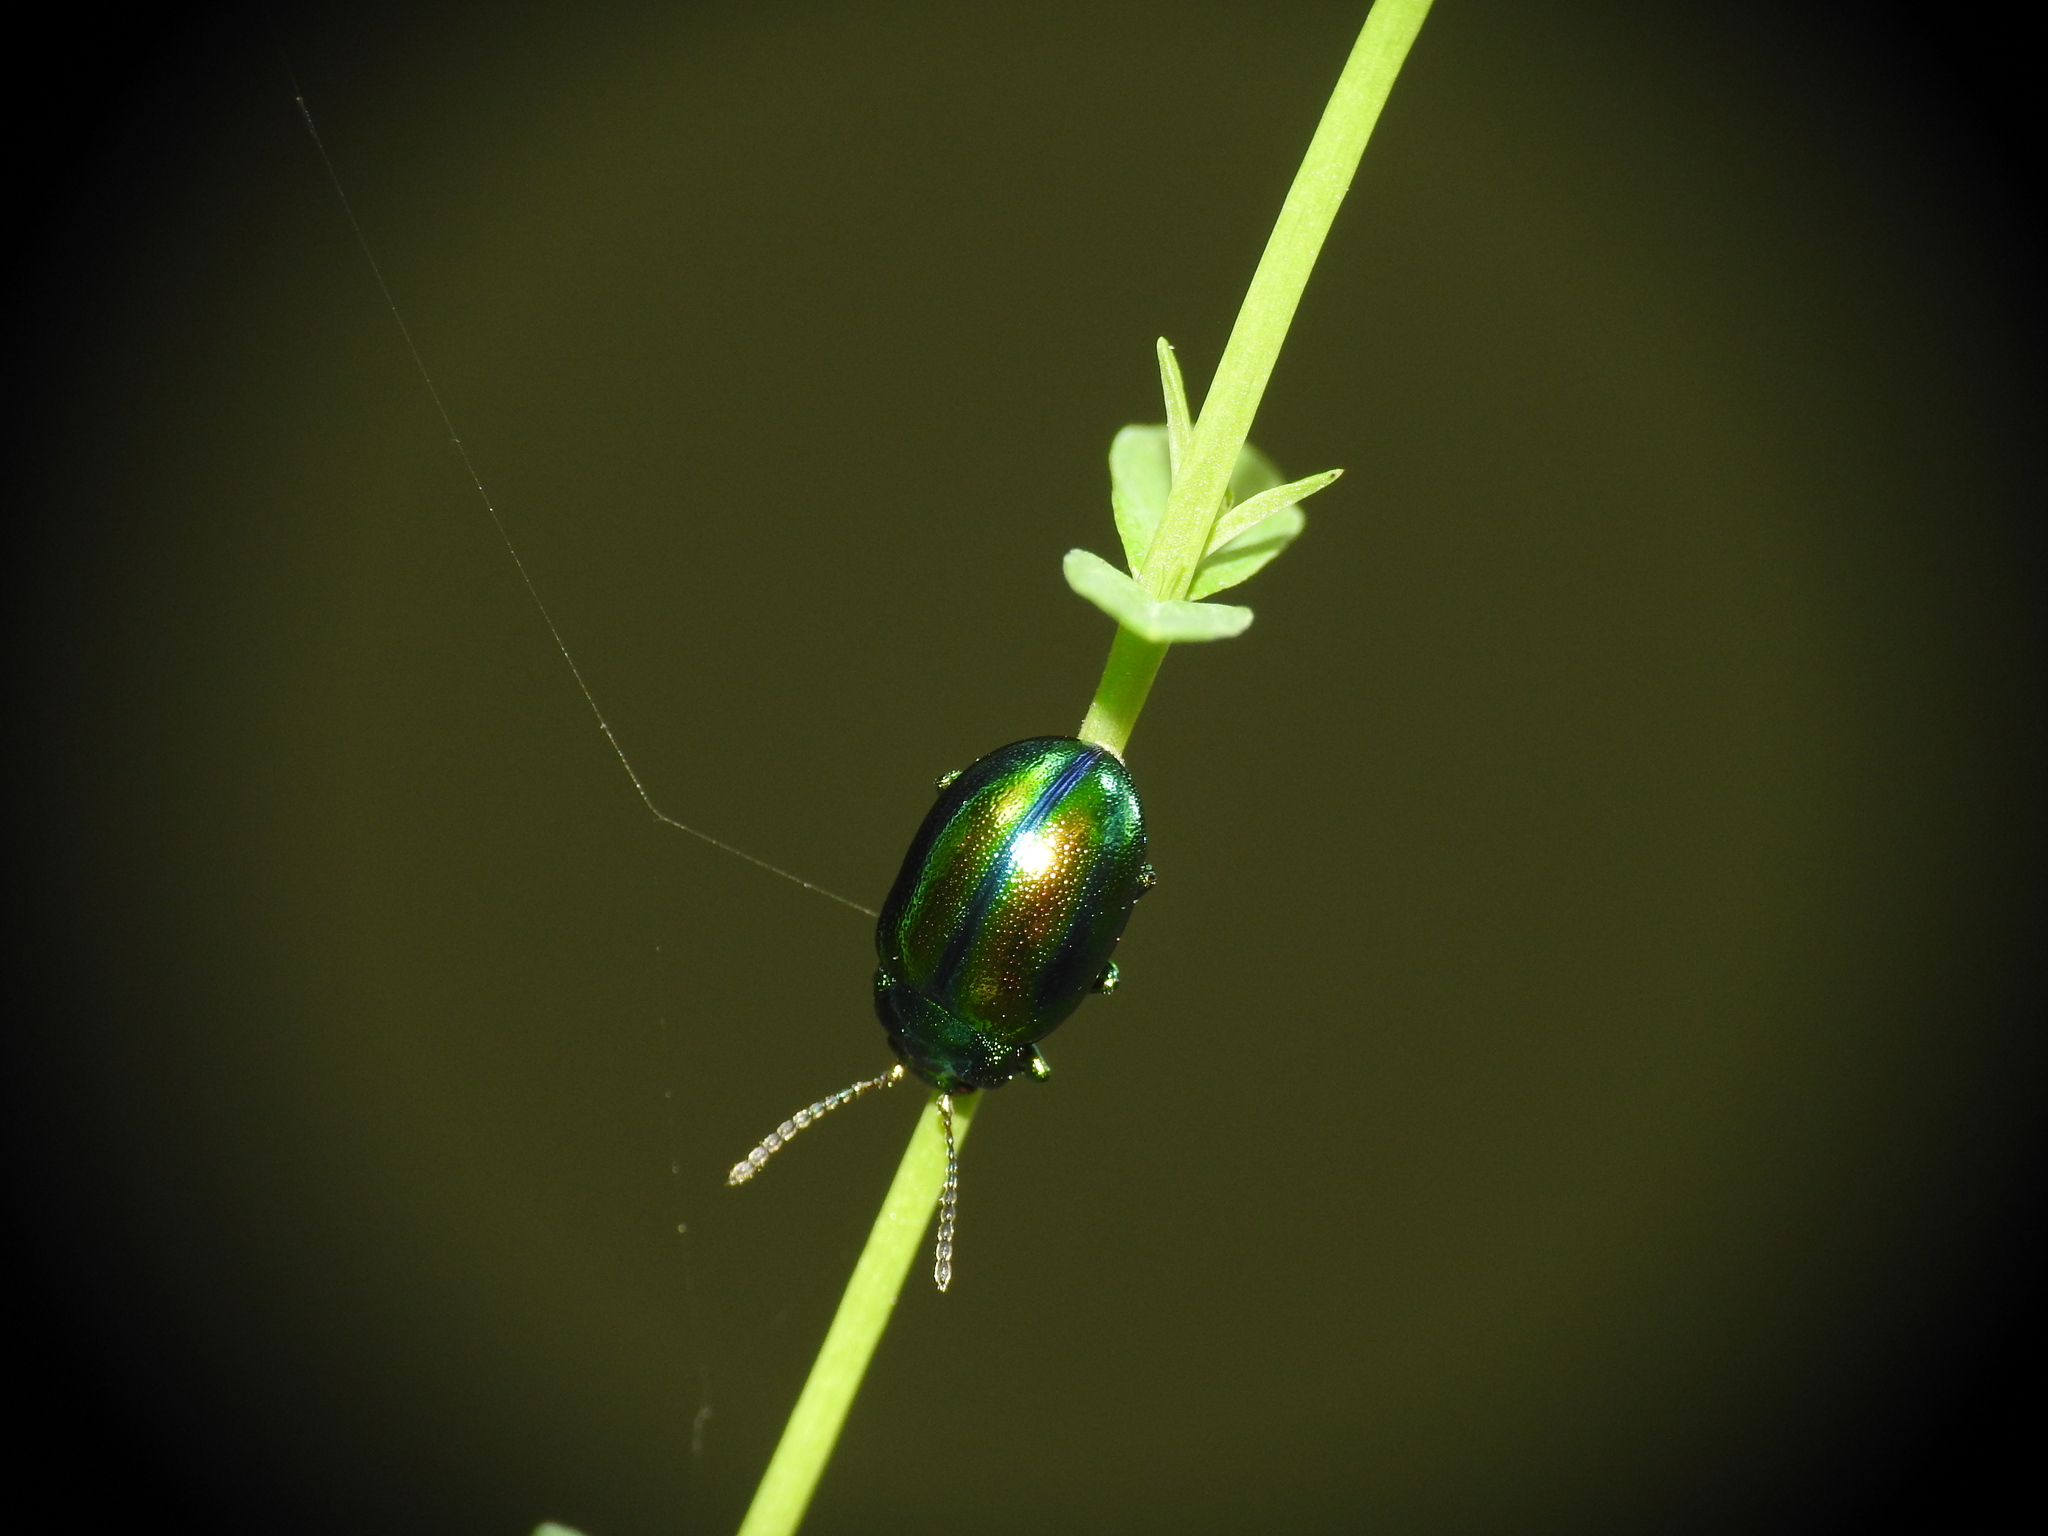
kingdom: Animalia
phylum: Arthropoda
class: Insecta
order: Coleoptera
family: Chrysomelidae
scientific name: Chrysomelidae
